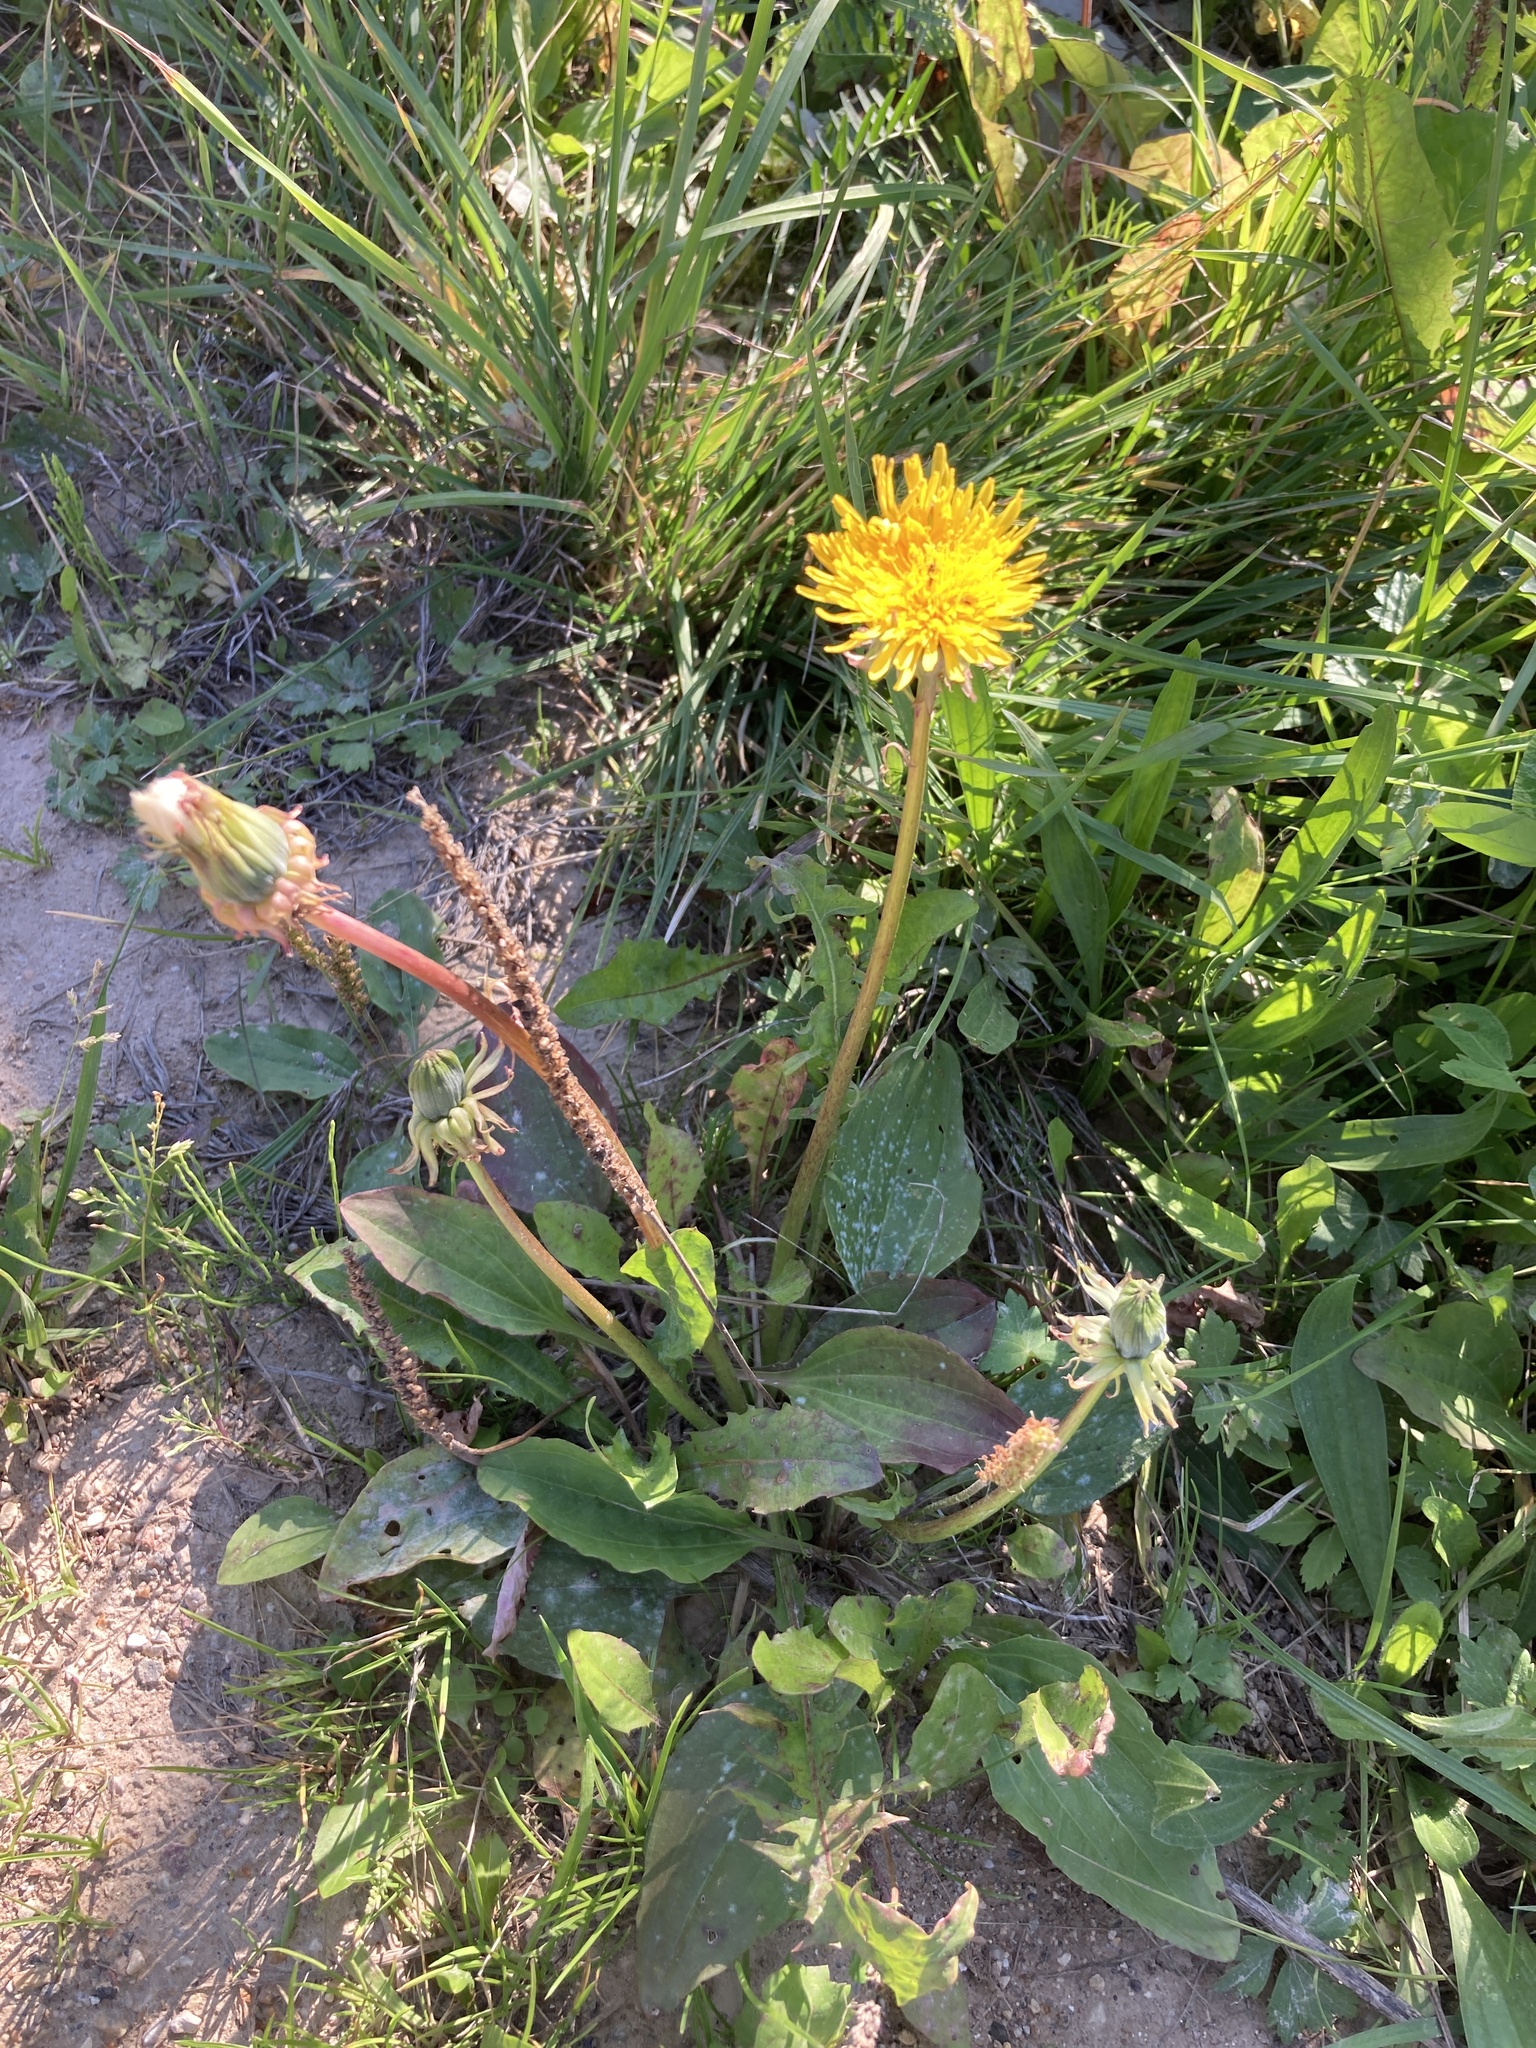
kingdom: Plantae
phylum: Tracheophyta
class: Magnoliopsida
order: Asterales
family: Asteraceae
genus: Taraxacum
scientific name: Taraxacum officinale
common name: Common dandelion
